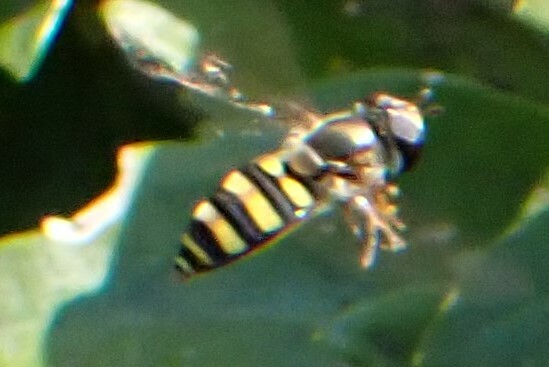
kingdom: Animalia
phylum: Arthropoda
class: Insecta
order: Diptera
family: Syrphidae
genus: Eupeodes
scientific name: Eupeodes
